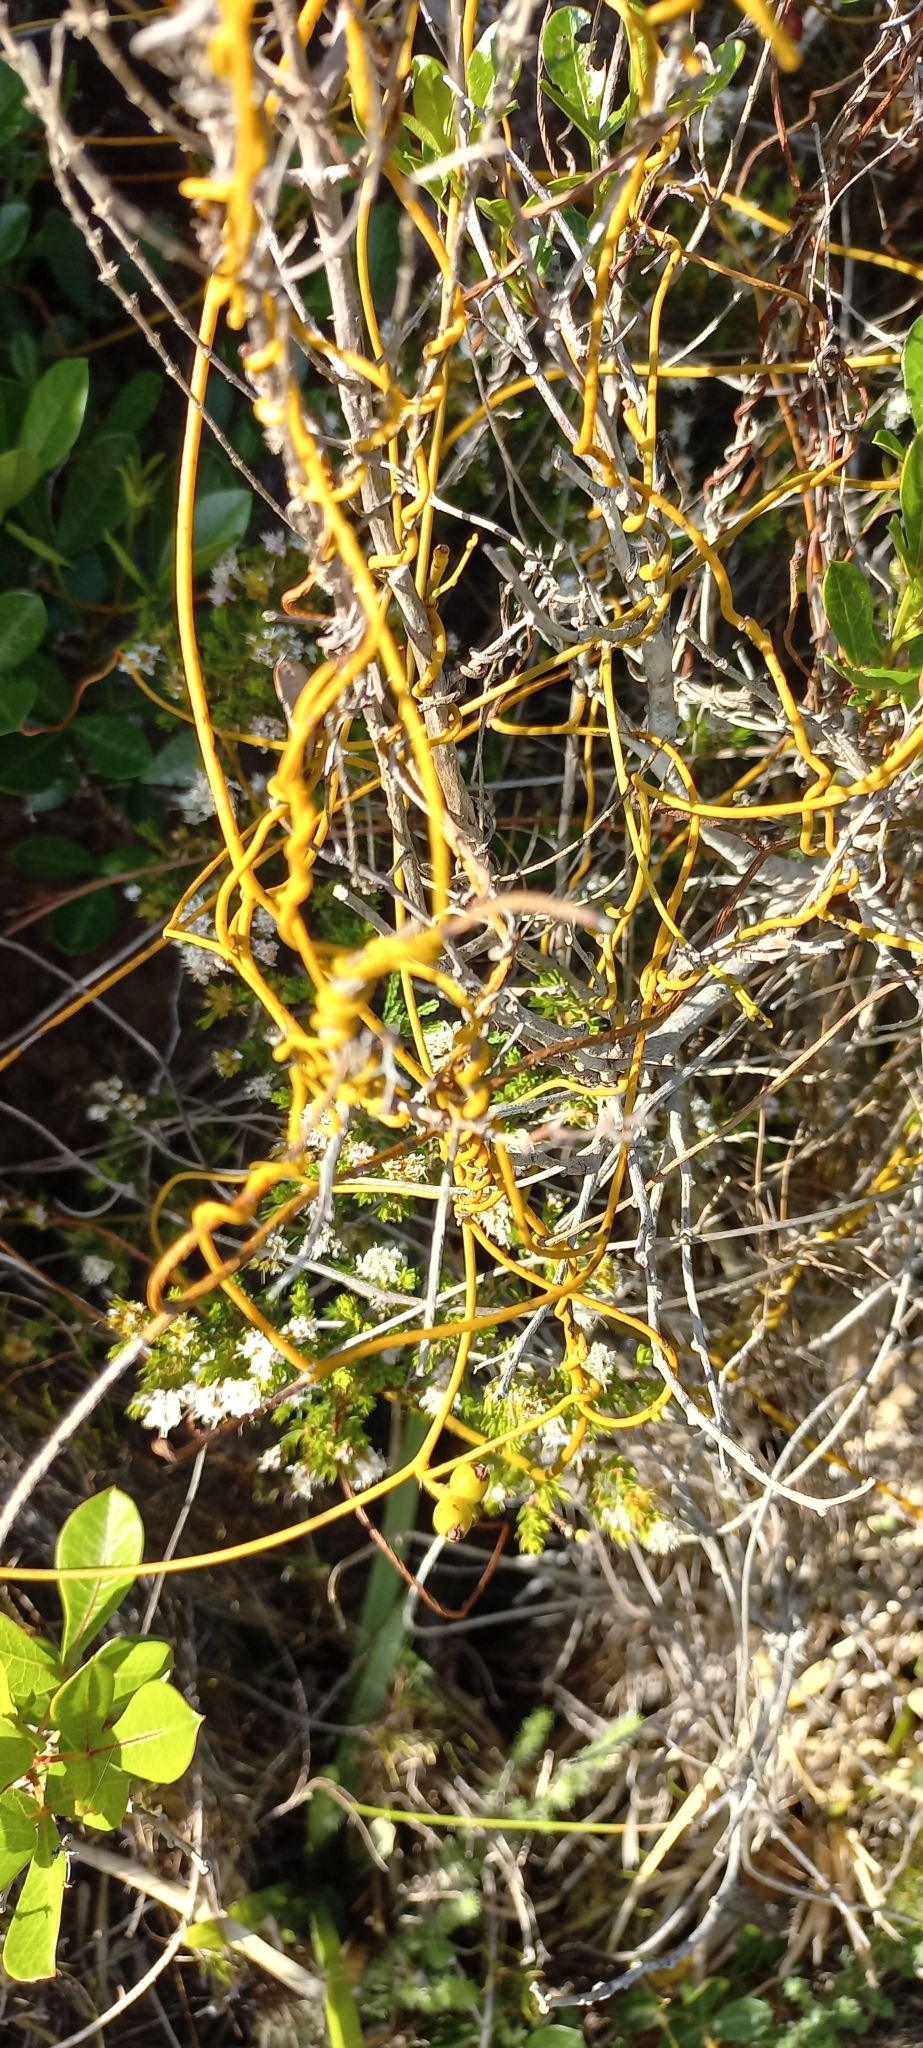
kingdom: Plantae
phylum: Tracheophyta
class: Magnoliopsida
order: Laurales
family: Lauraceae
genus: Cassytha
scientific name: Cassytha ciliolata
